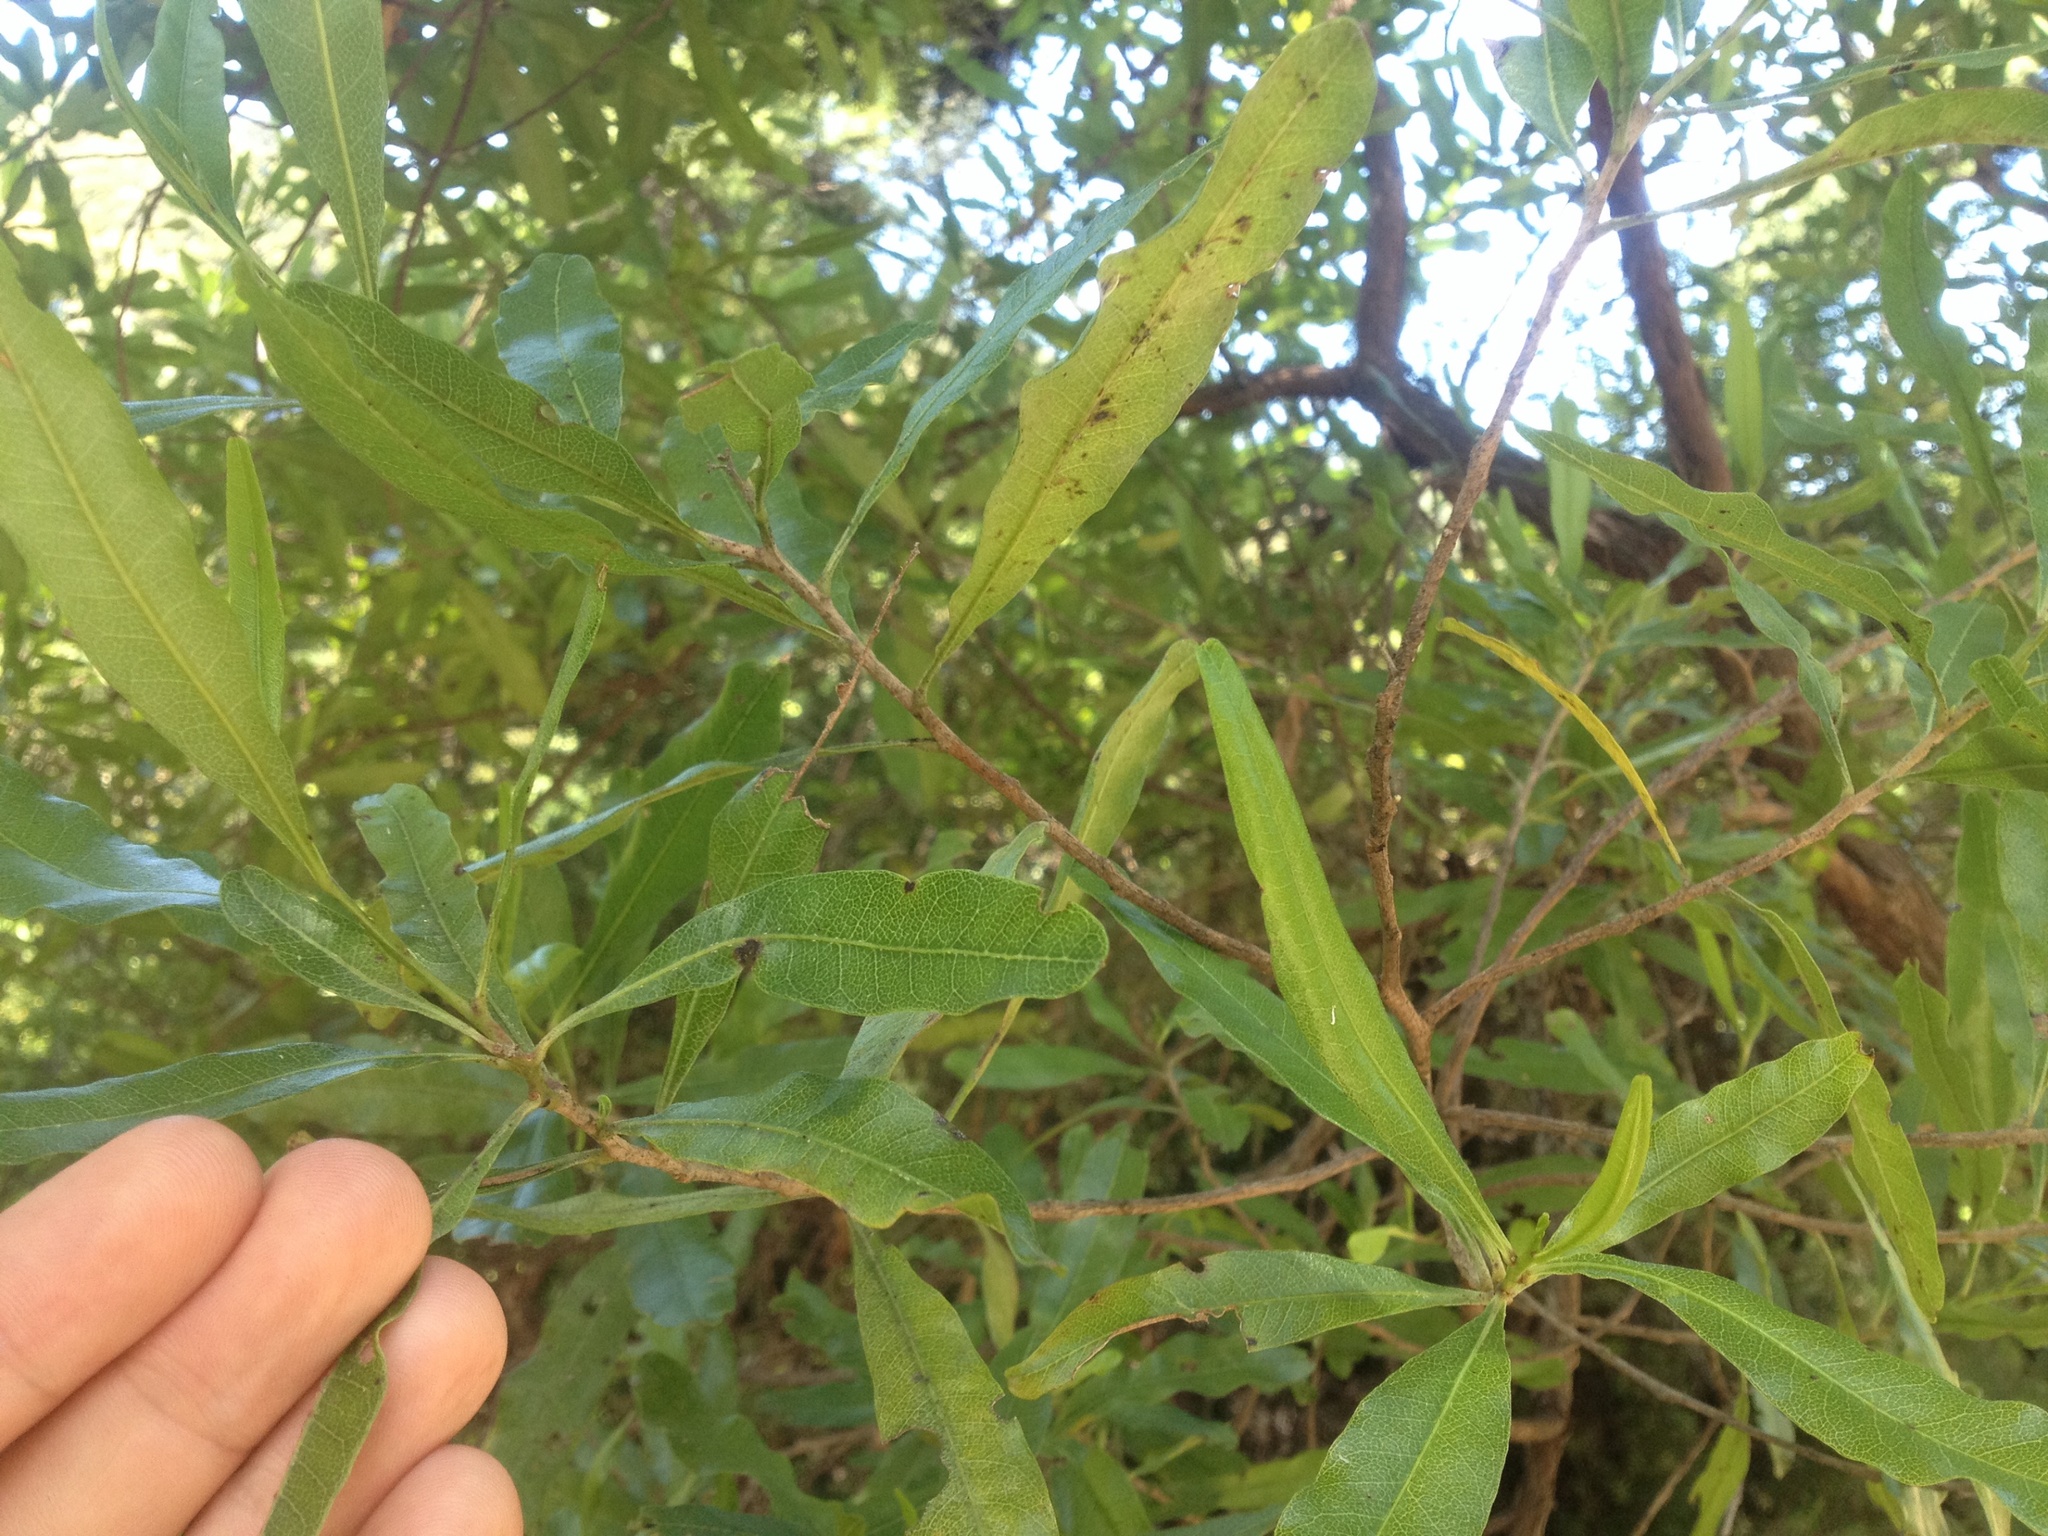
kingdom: Plantae
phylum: Tracheophyta
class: Magnoliopsida
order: Sapindales
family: Sapindaceae
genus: Dodonaea
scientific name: Dodonaea viscosa
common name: Hopbush
